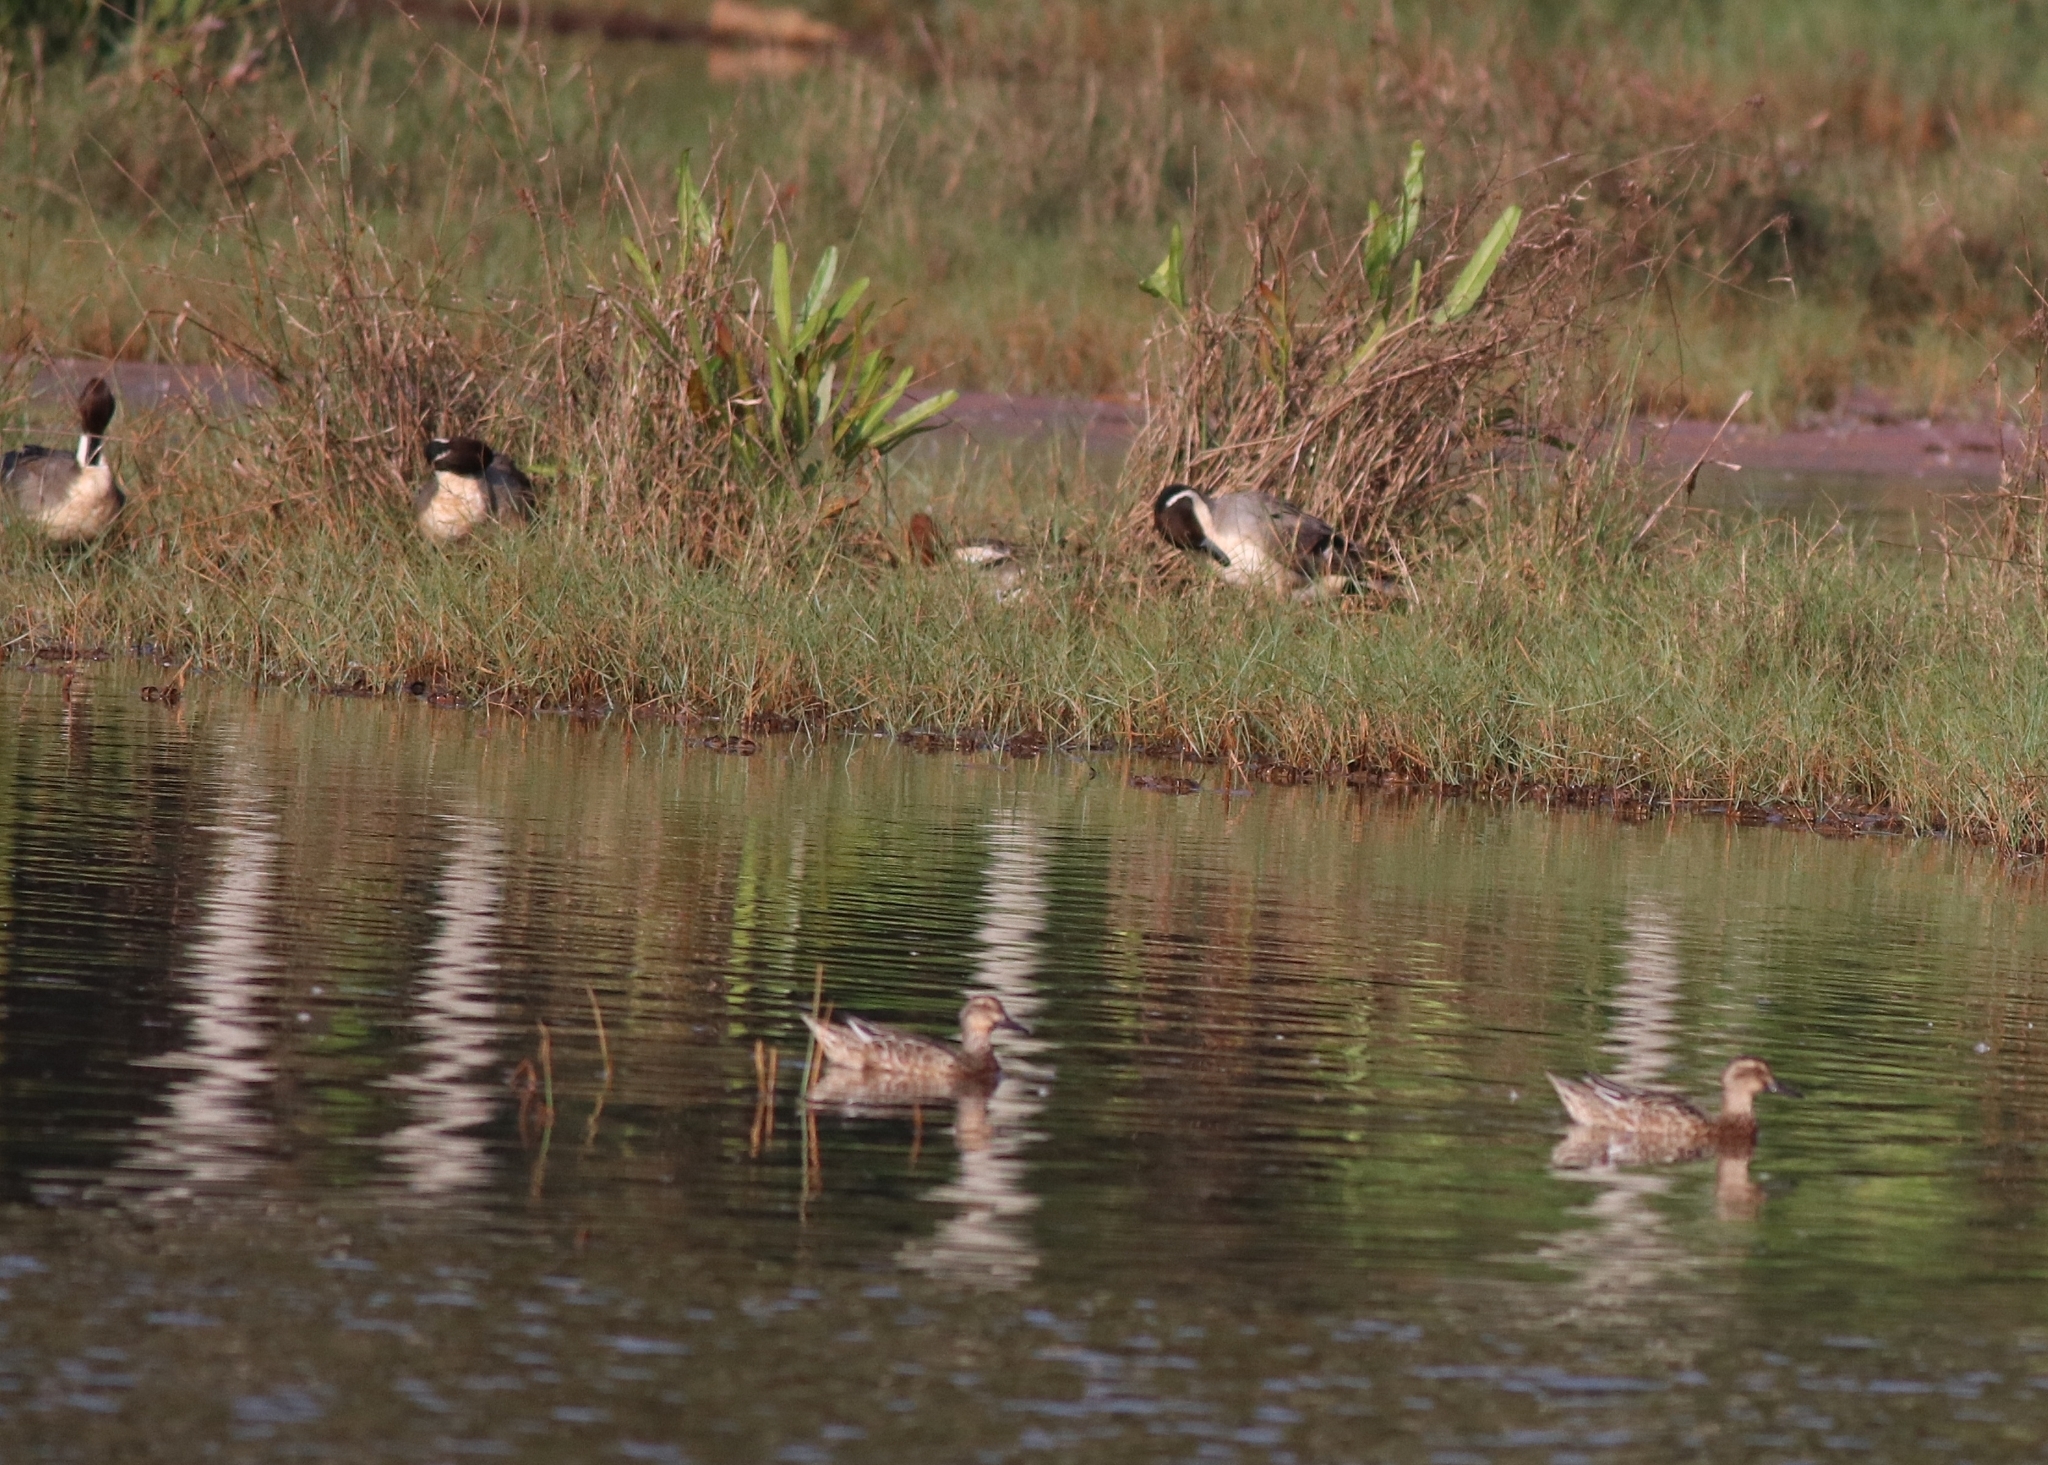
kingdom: Animalia
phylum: Chordata
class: Aves
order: Anseriformes
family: Anatidae
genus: Spatula
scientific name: Spatula querquedula
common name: Garganey
